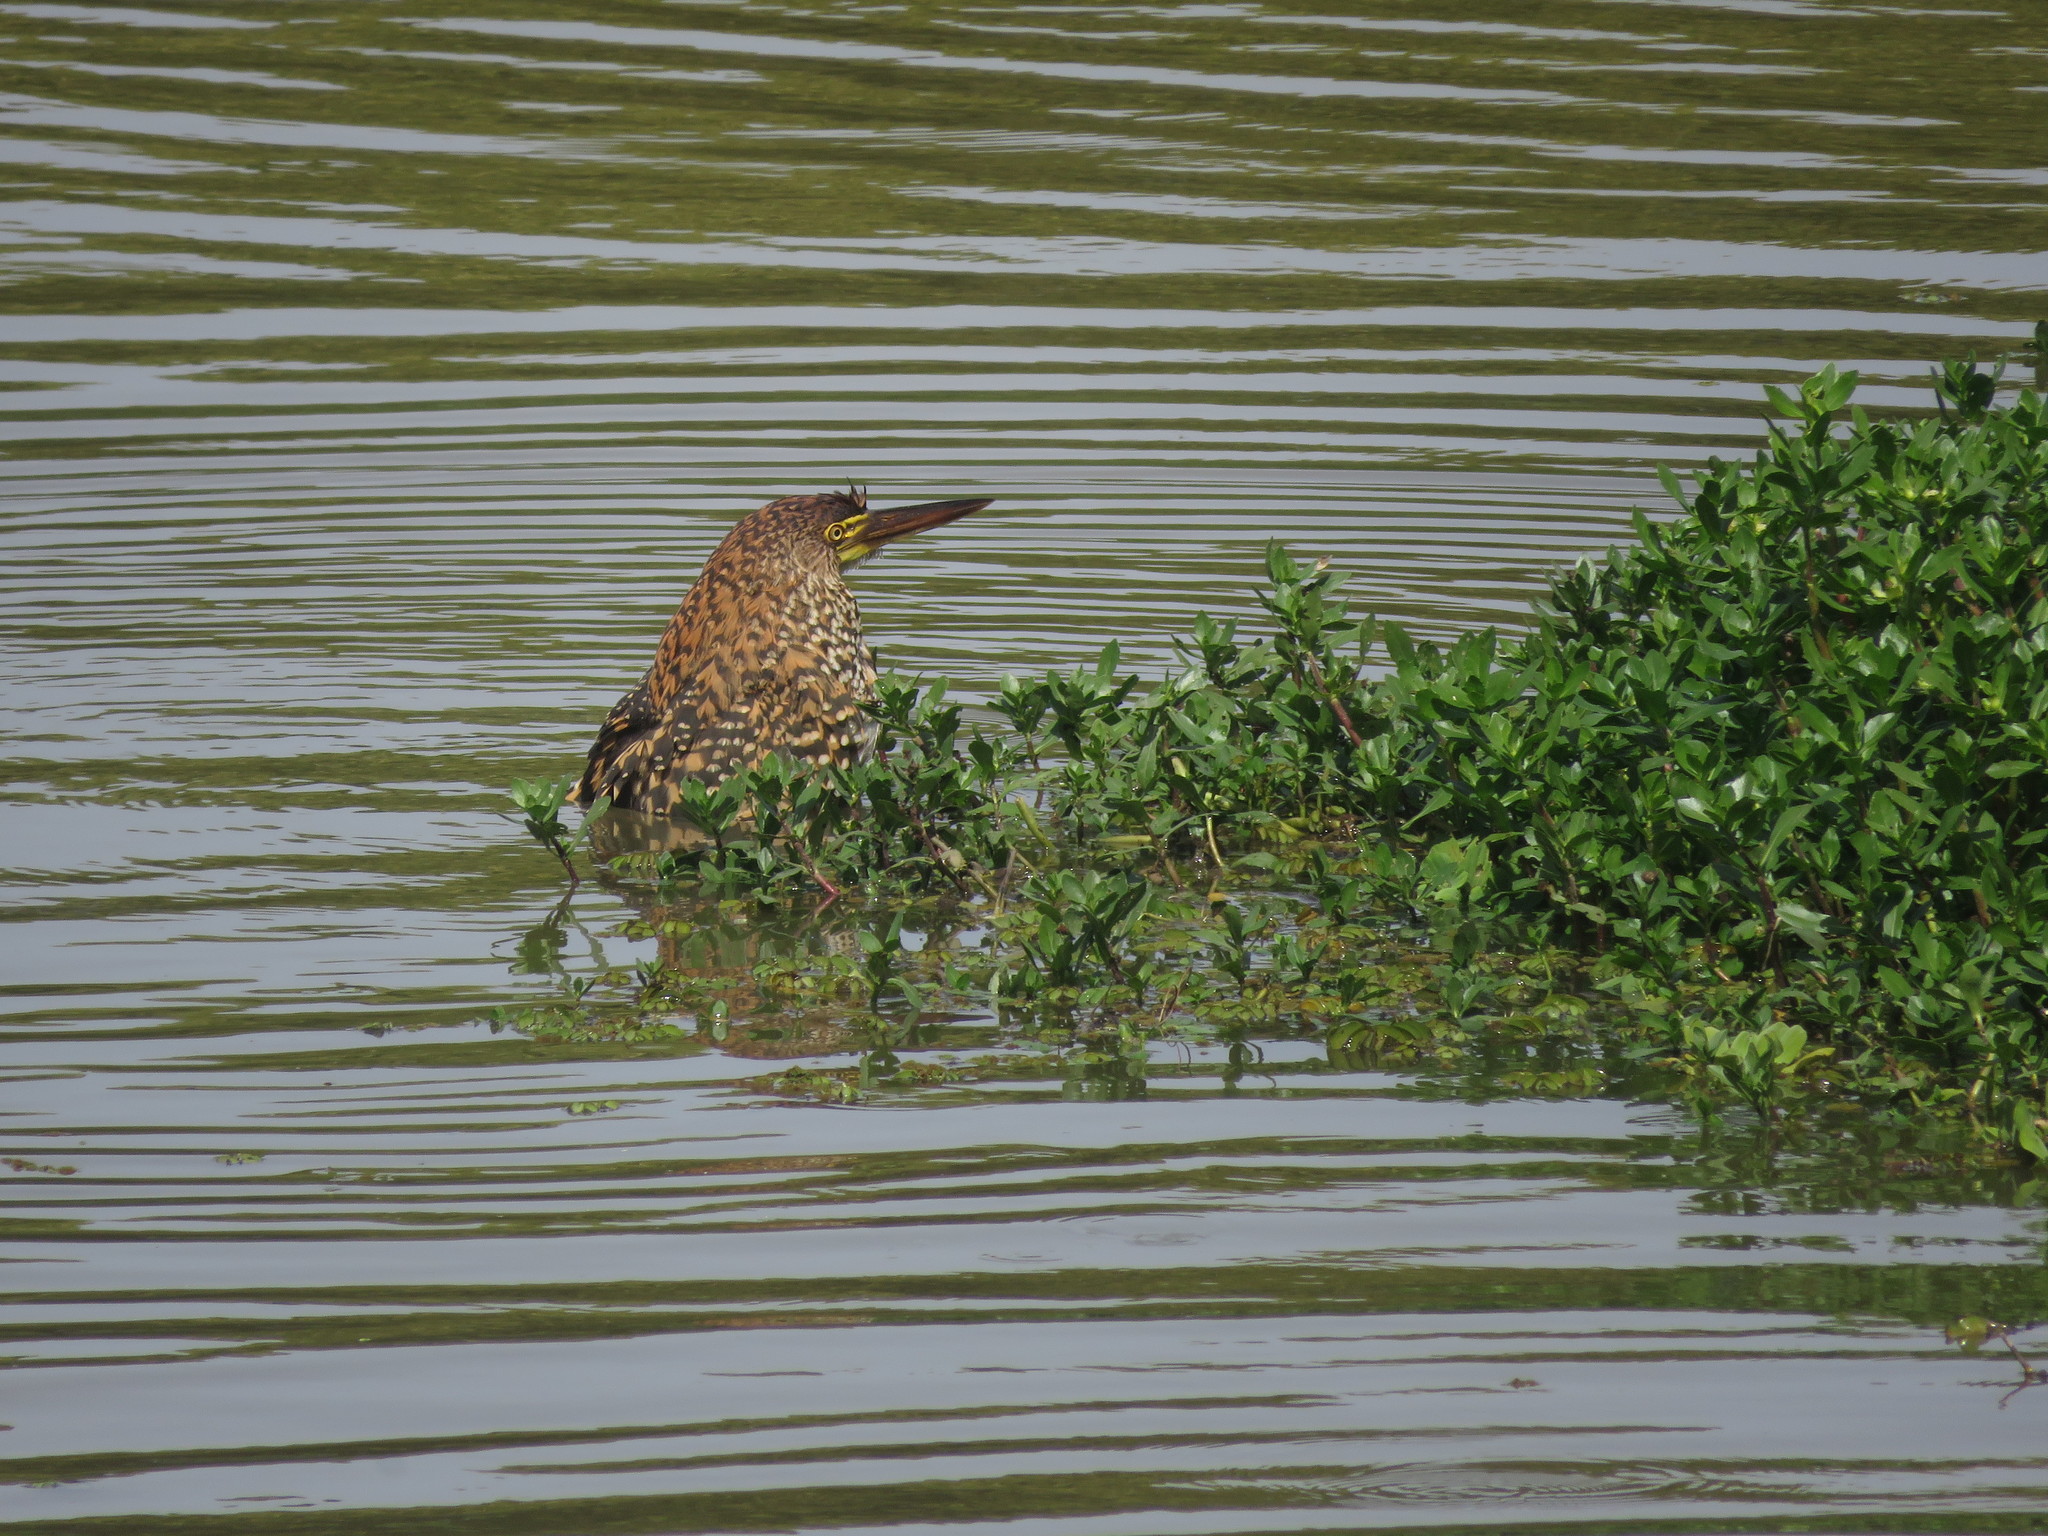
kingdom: Animalia
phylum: Chordata
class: Aves
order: Pelecaniformes
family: Ardeidae
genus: Tigrisoma
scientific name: Tigrisoma lineatum
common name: Rufescent tiger-heron
